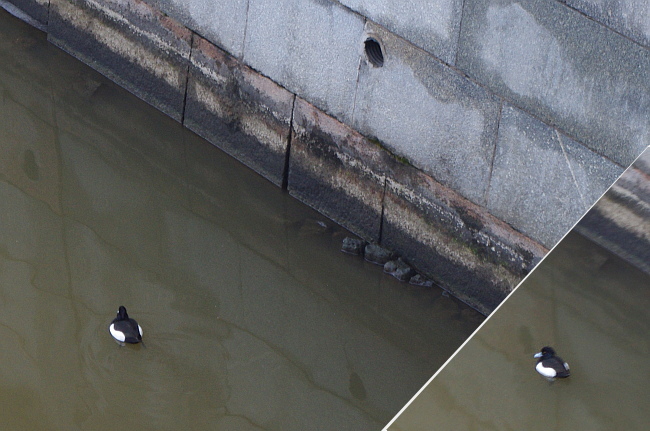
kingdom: Animalia
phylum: Chordata
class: Aves
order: Anseriformes
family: Anatidae
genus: Aythya
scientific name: Aythya fuligula
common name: Tufted duck
